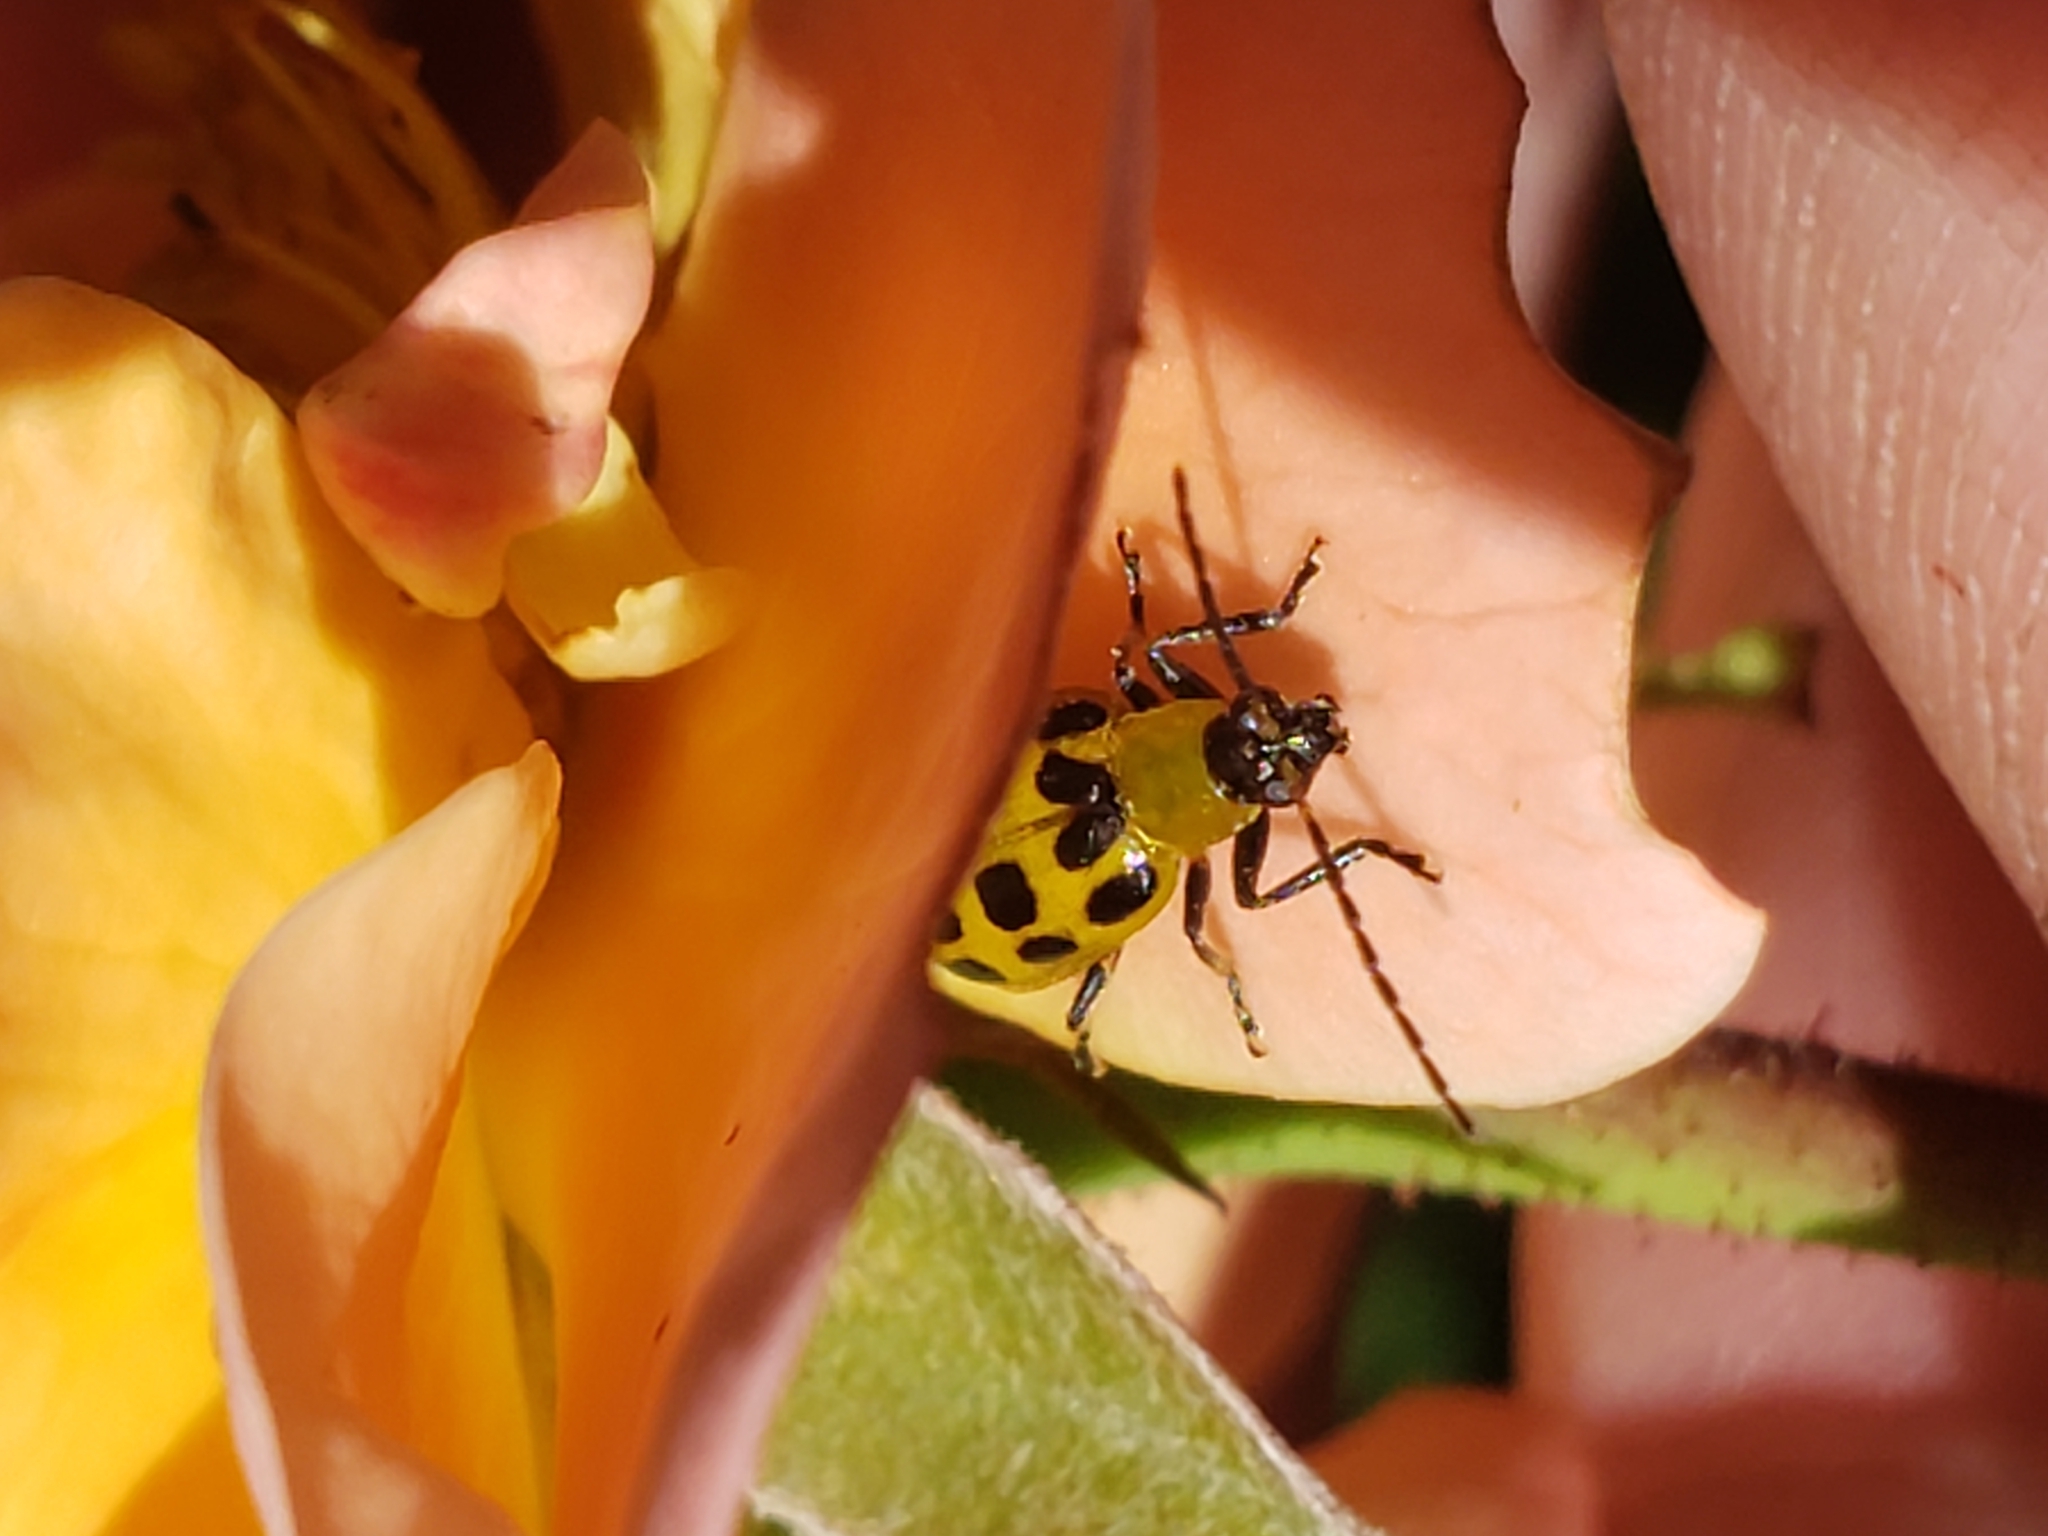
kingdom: Animalia
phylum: Arthropoda
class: Insecta
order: Coleoptera
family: Chrysomelidae
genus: Diabrotica
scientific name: Diabrotica undecimpunctata
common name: Spotted cucumber beetle
